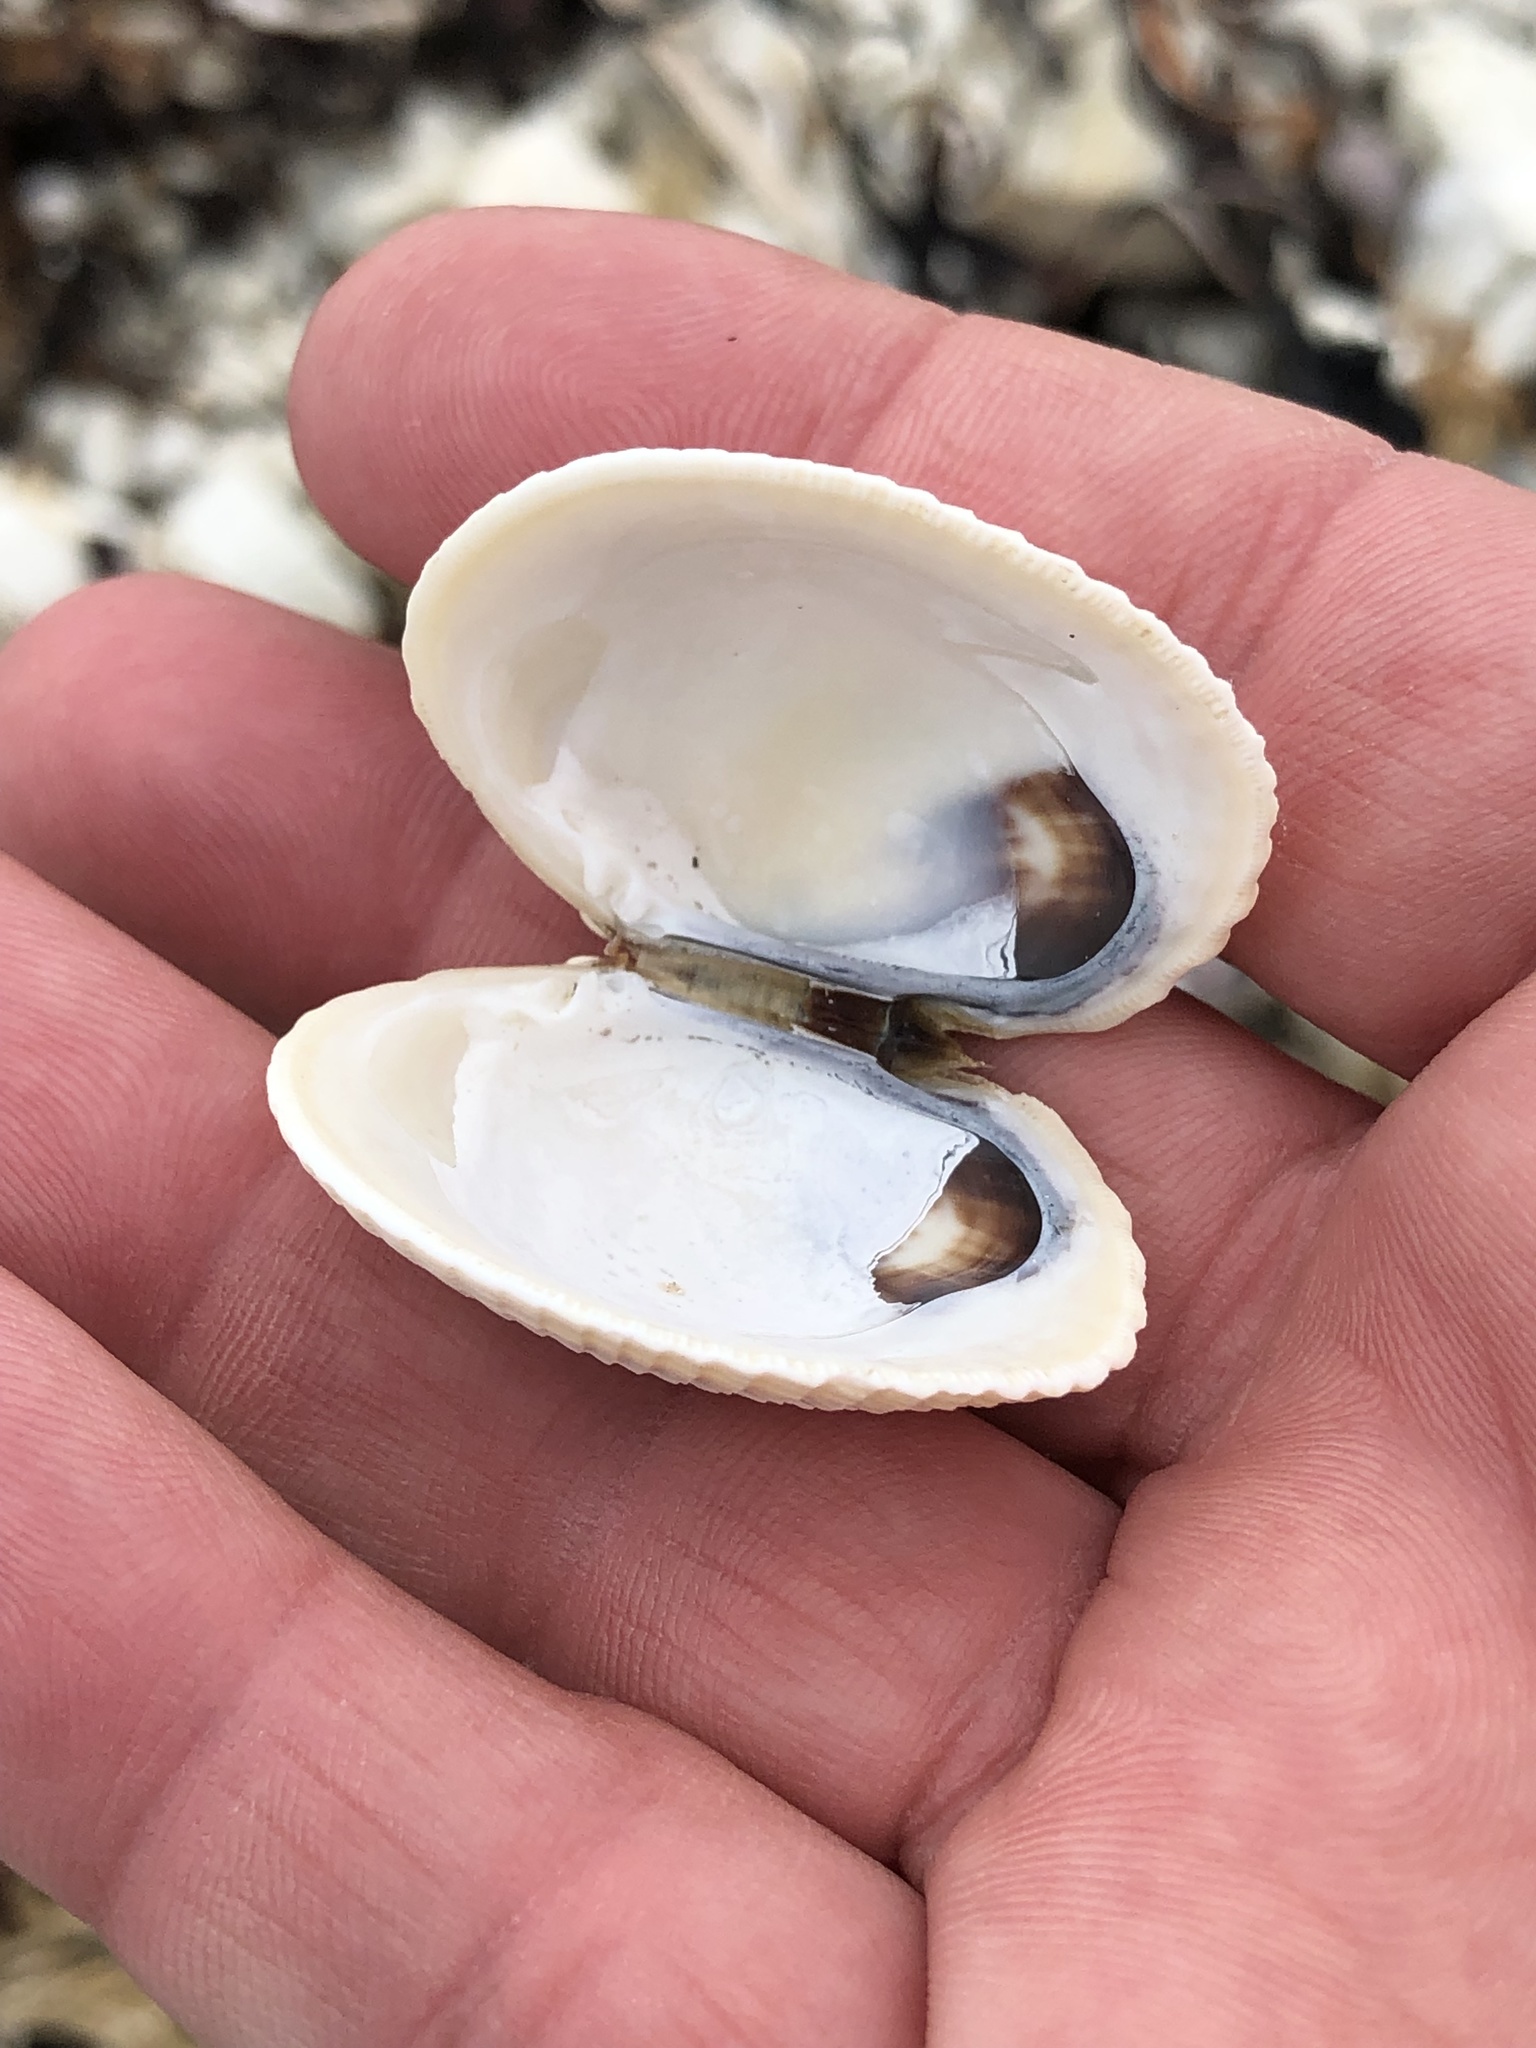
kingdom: Animalia
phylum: Mollusca
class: Bivalvia
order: Venerida
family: Veneridae
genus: Leukoma
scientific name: Leukoma crassicosta
